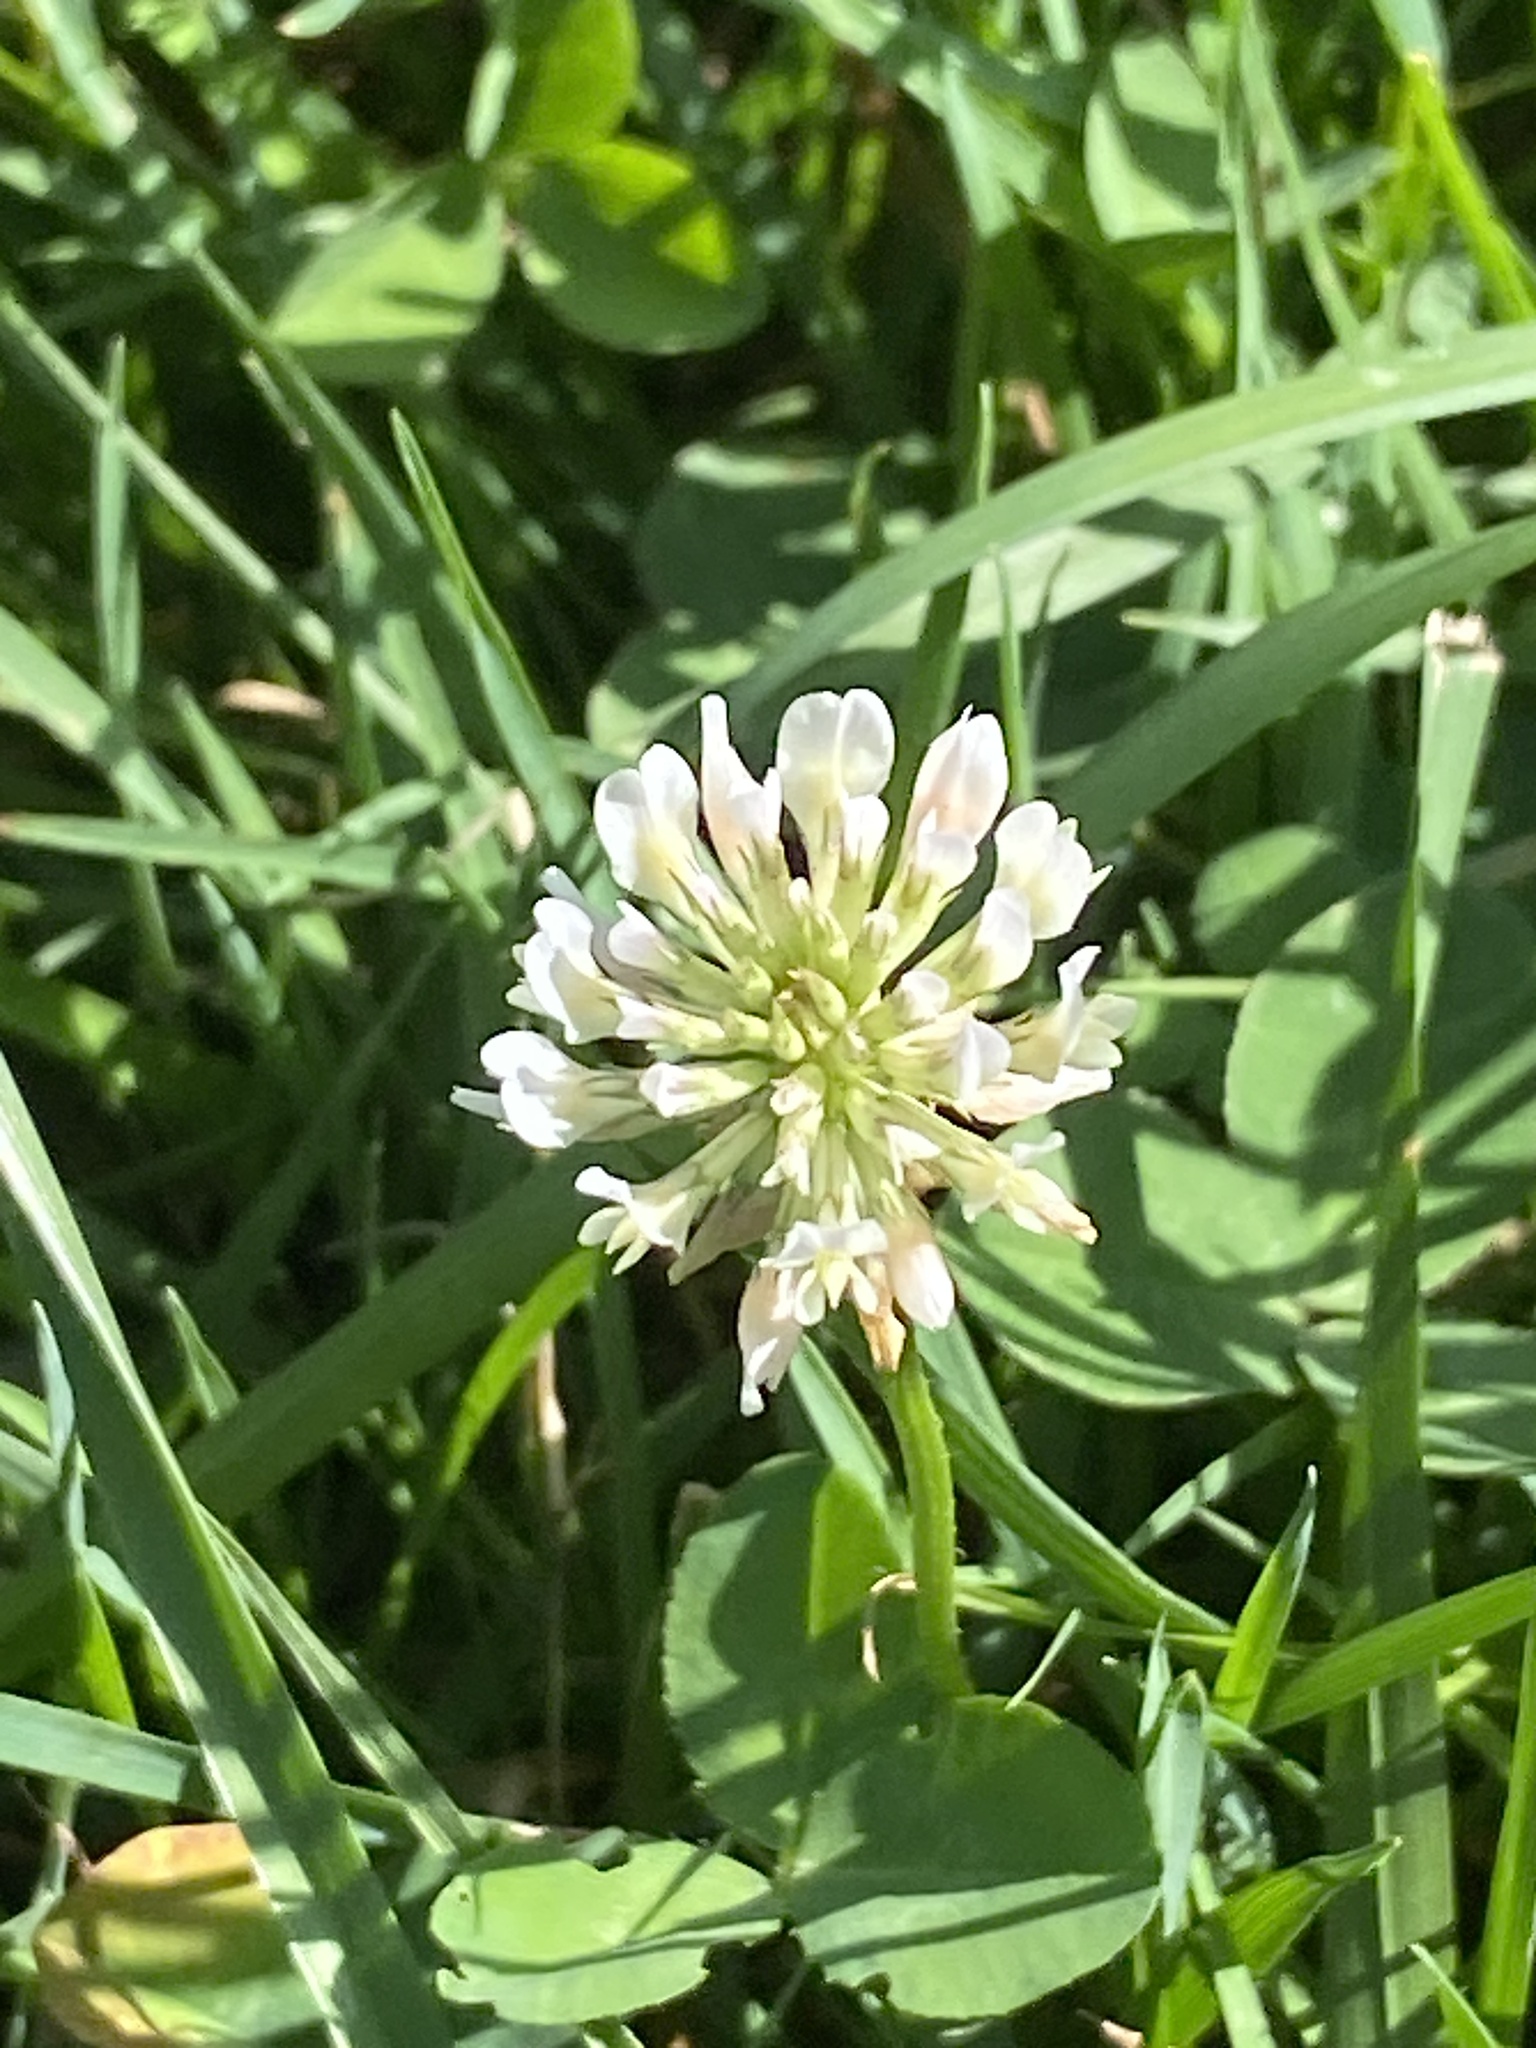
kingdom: Plantae
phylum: Tracheophyta
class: Magnoliopsida
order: Fabales
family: Fabaceae
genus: Trifolium
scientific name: Trifolium repens
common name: White clover
